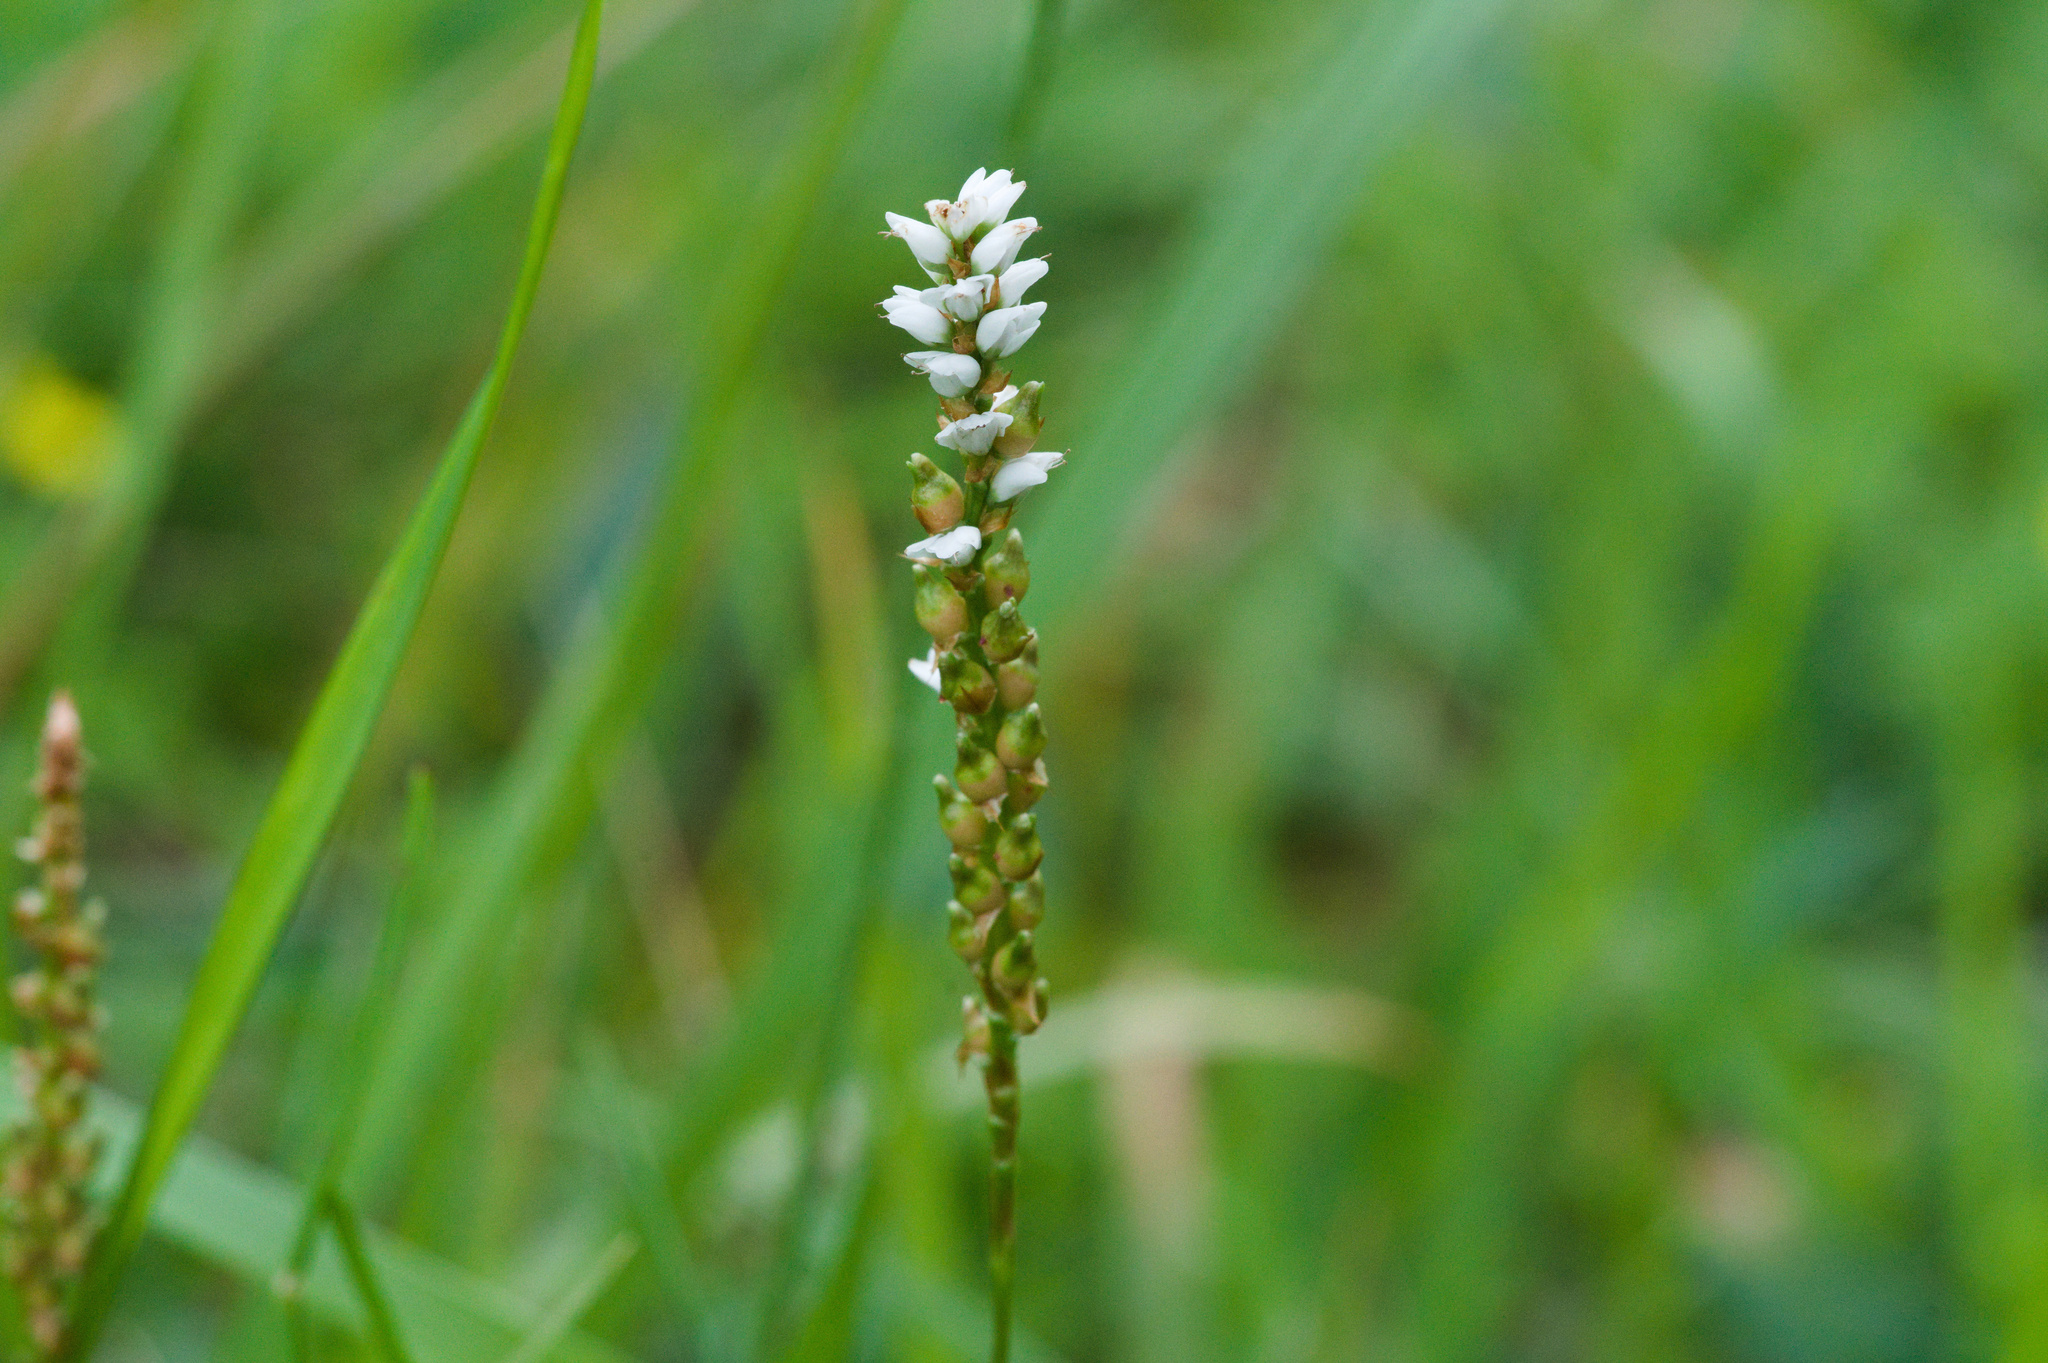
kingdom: Plantae
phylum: Tracheophyta
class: Magnoliopsida
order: Caryophyllales
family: Polygonaceae
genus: Bistorta
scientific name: Bistorta vivipara
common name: Alpine bistort
